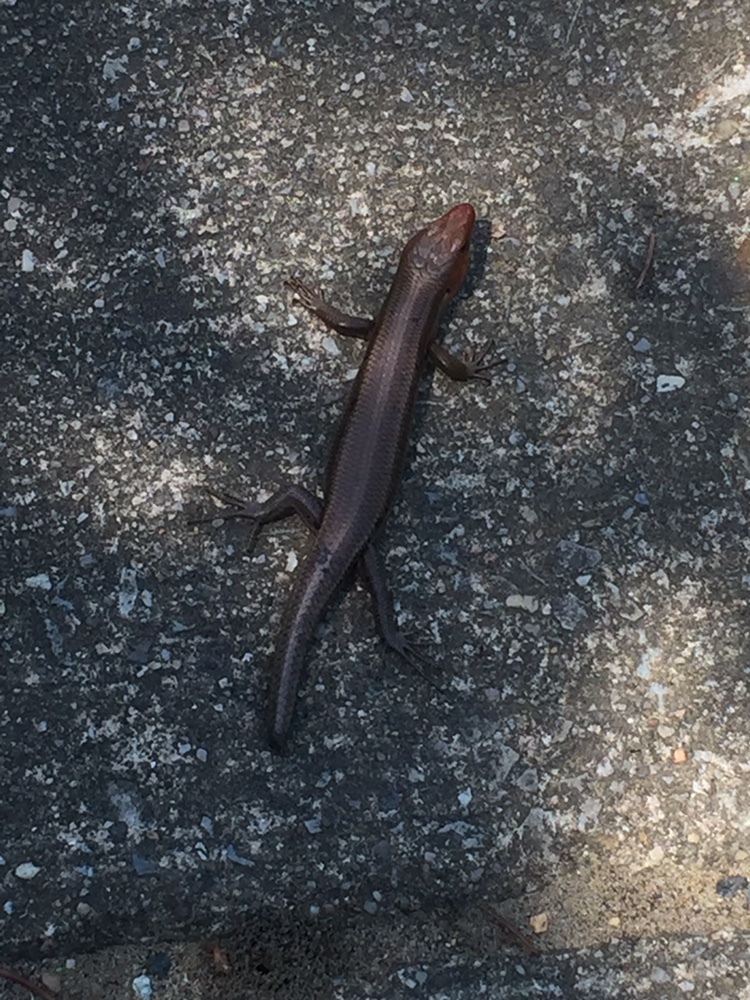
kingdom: Animalia
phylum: Chordata
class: Squamata
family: Scincidae
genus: Plestiodon
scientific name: Plestiodon fasciatus
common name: Five-lined skink
